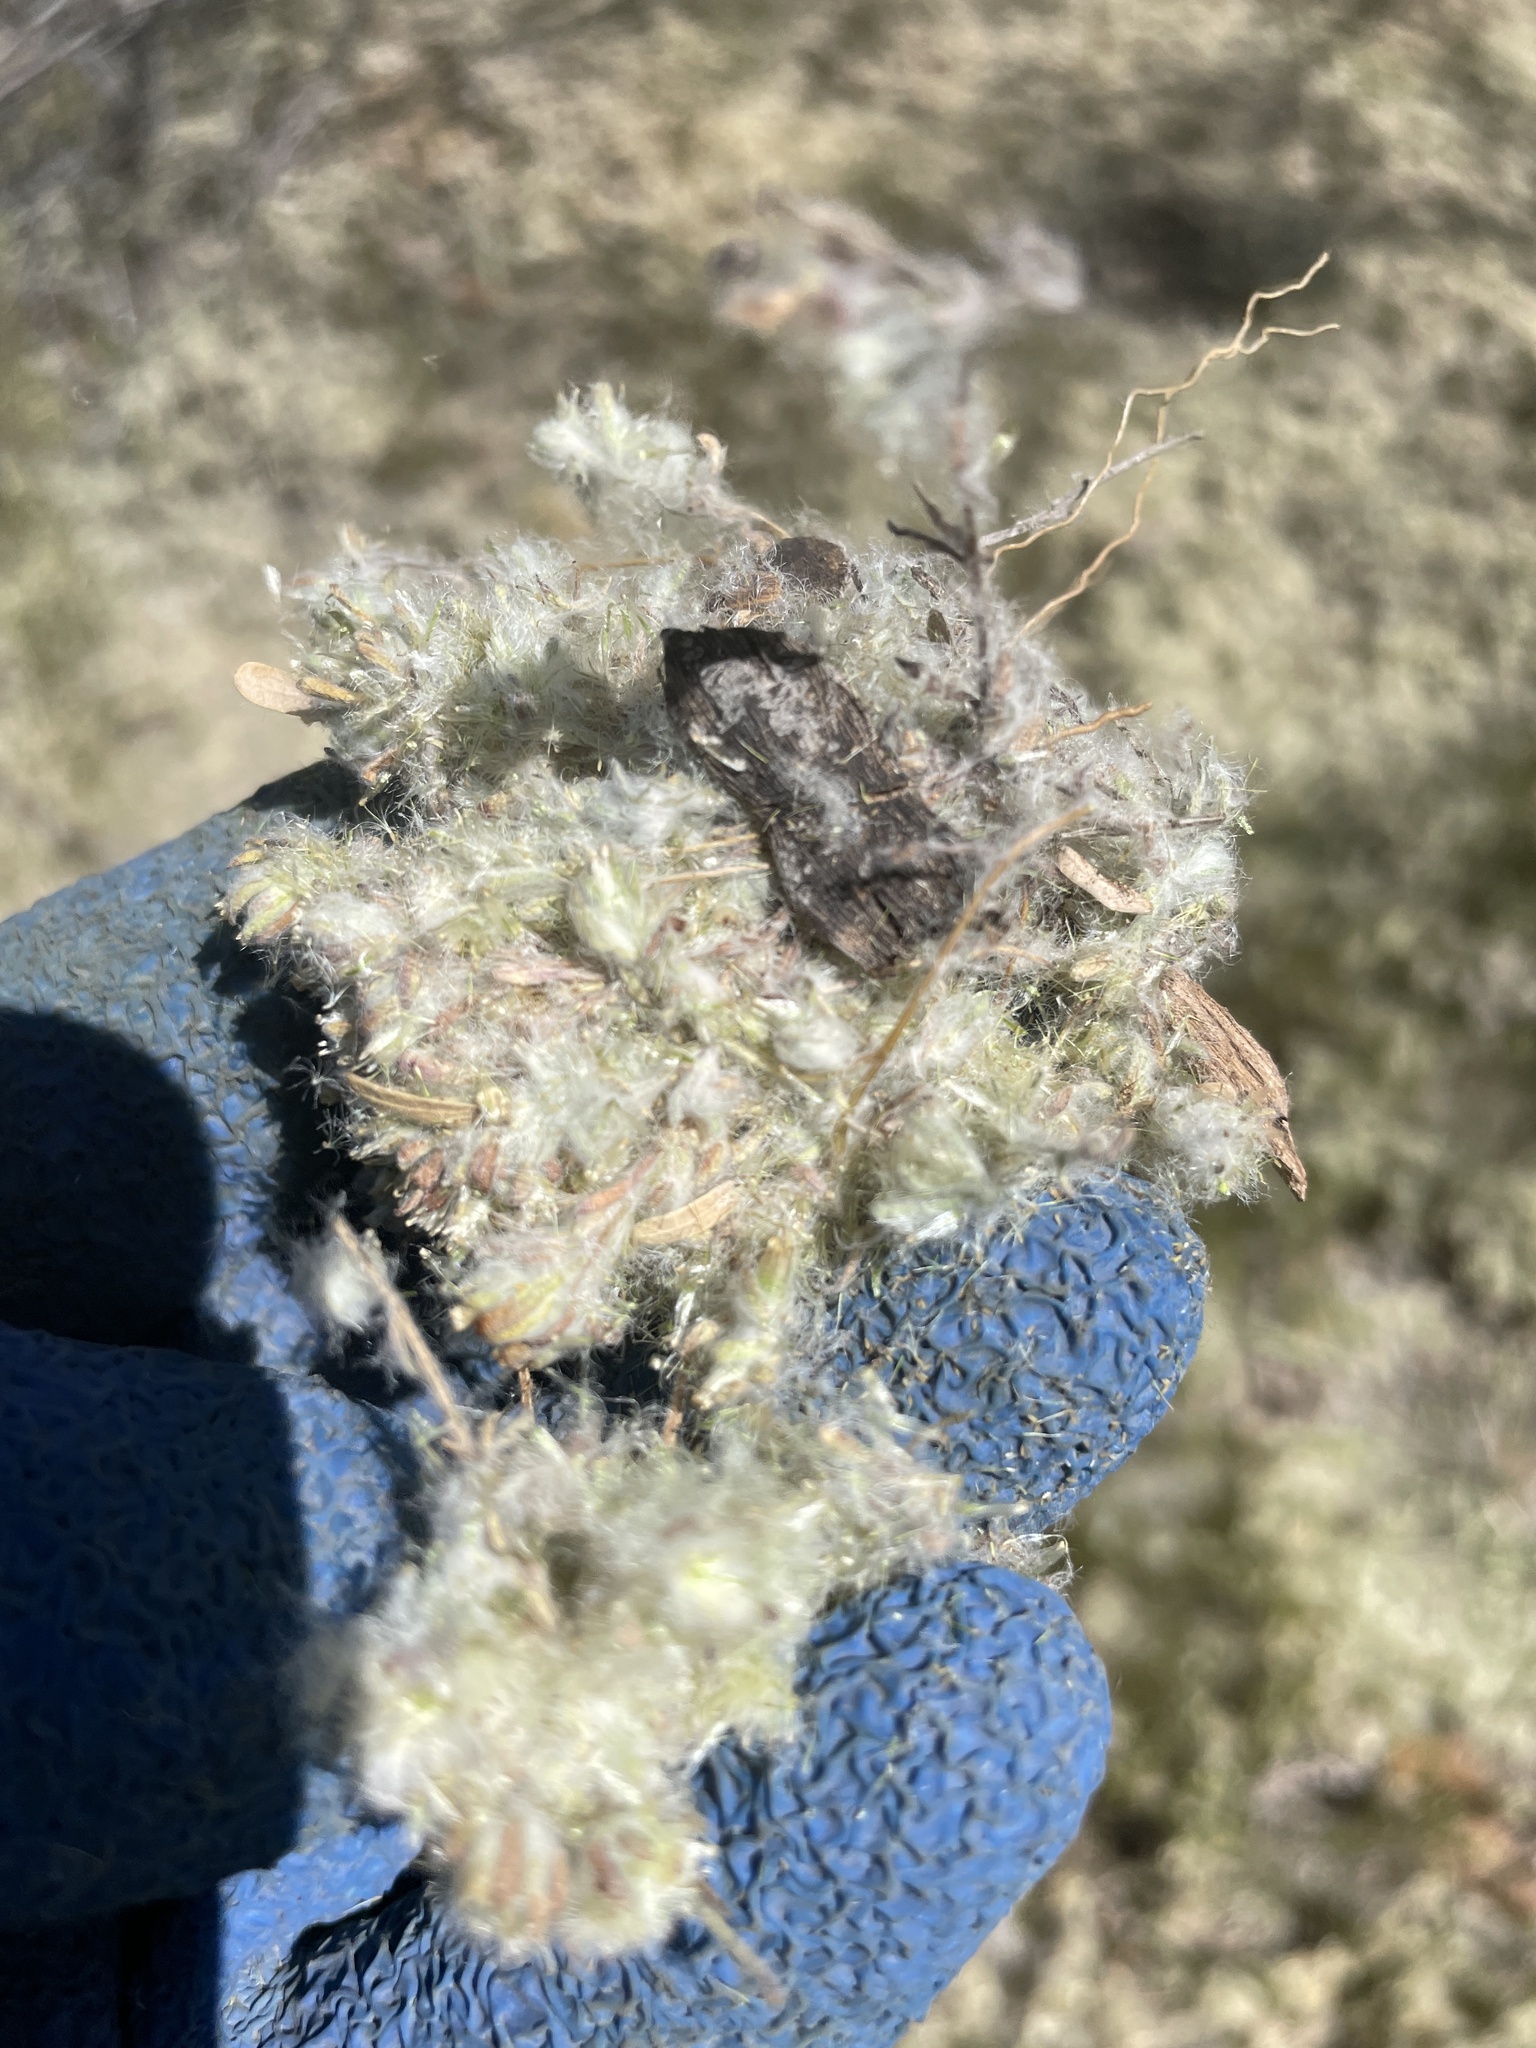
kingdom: Plantae
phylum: Tracheophyta
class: Magnoliopsida
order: Asterales
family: Asteraceae
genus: Lasiopogon
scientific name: Lasiopogon glomerulatus
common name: Green cat thorn
